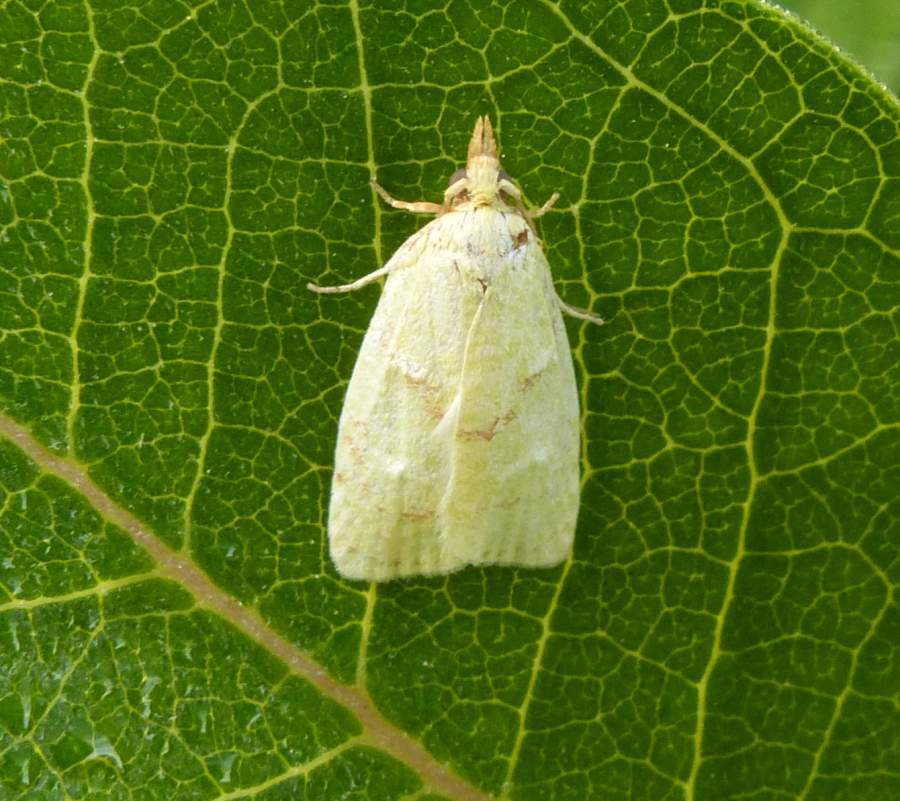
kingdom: Animalia
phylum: Arthropoda
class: Insecta
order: Lepidoptera
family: Tortricidae
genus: Cenopis
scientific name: Cenopis pettitana
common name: Maple-basswood leafroller moth
